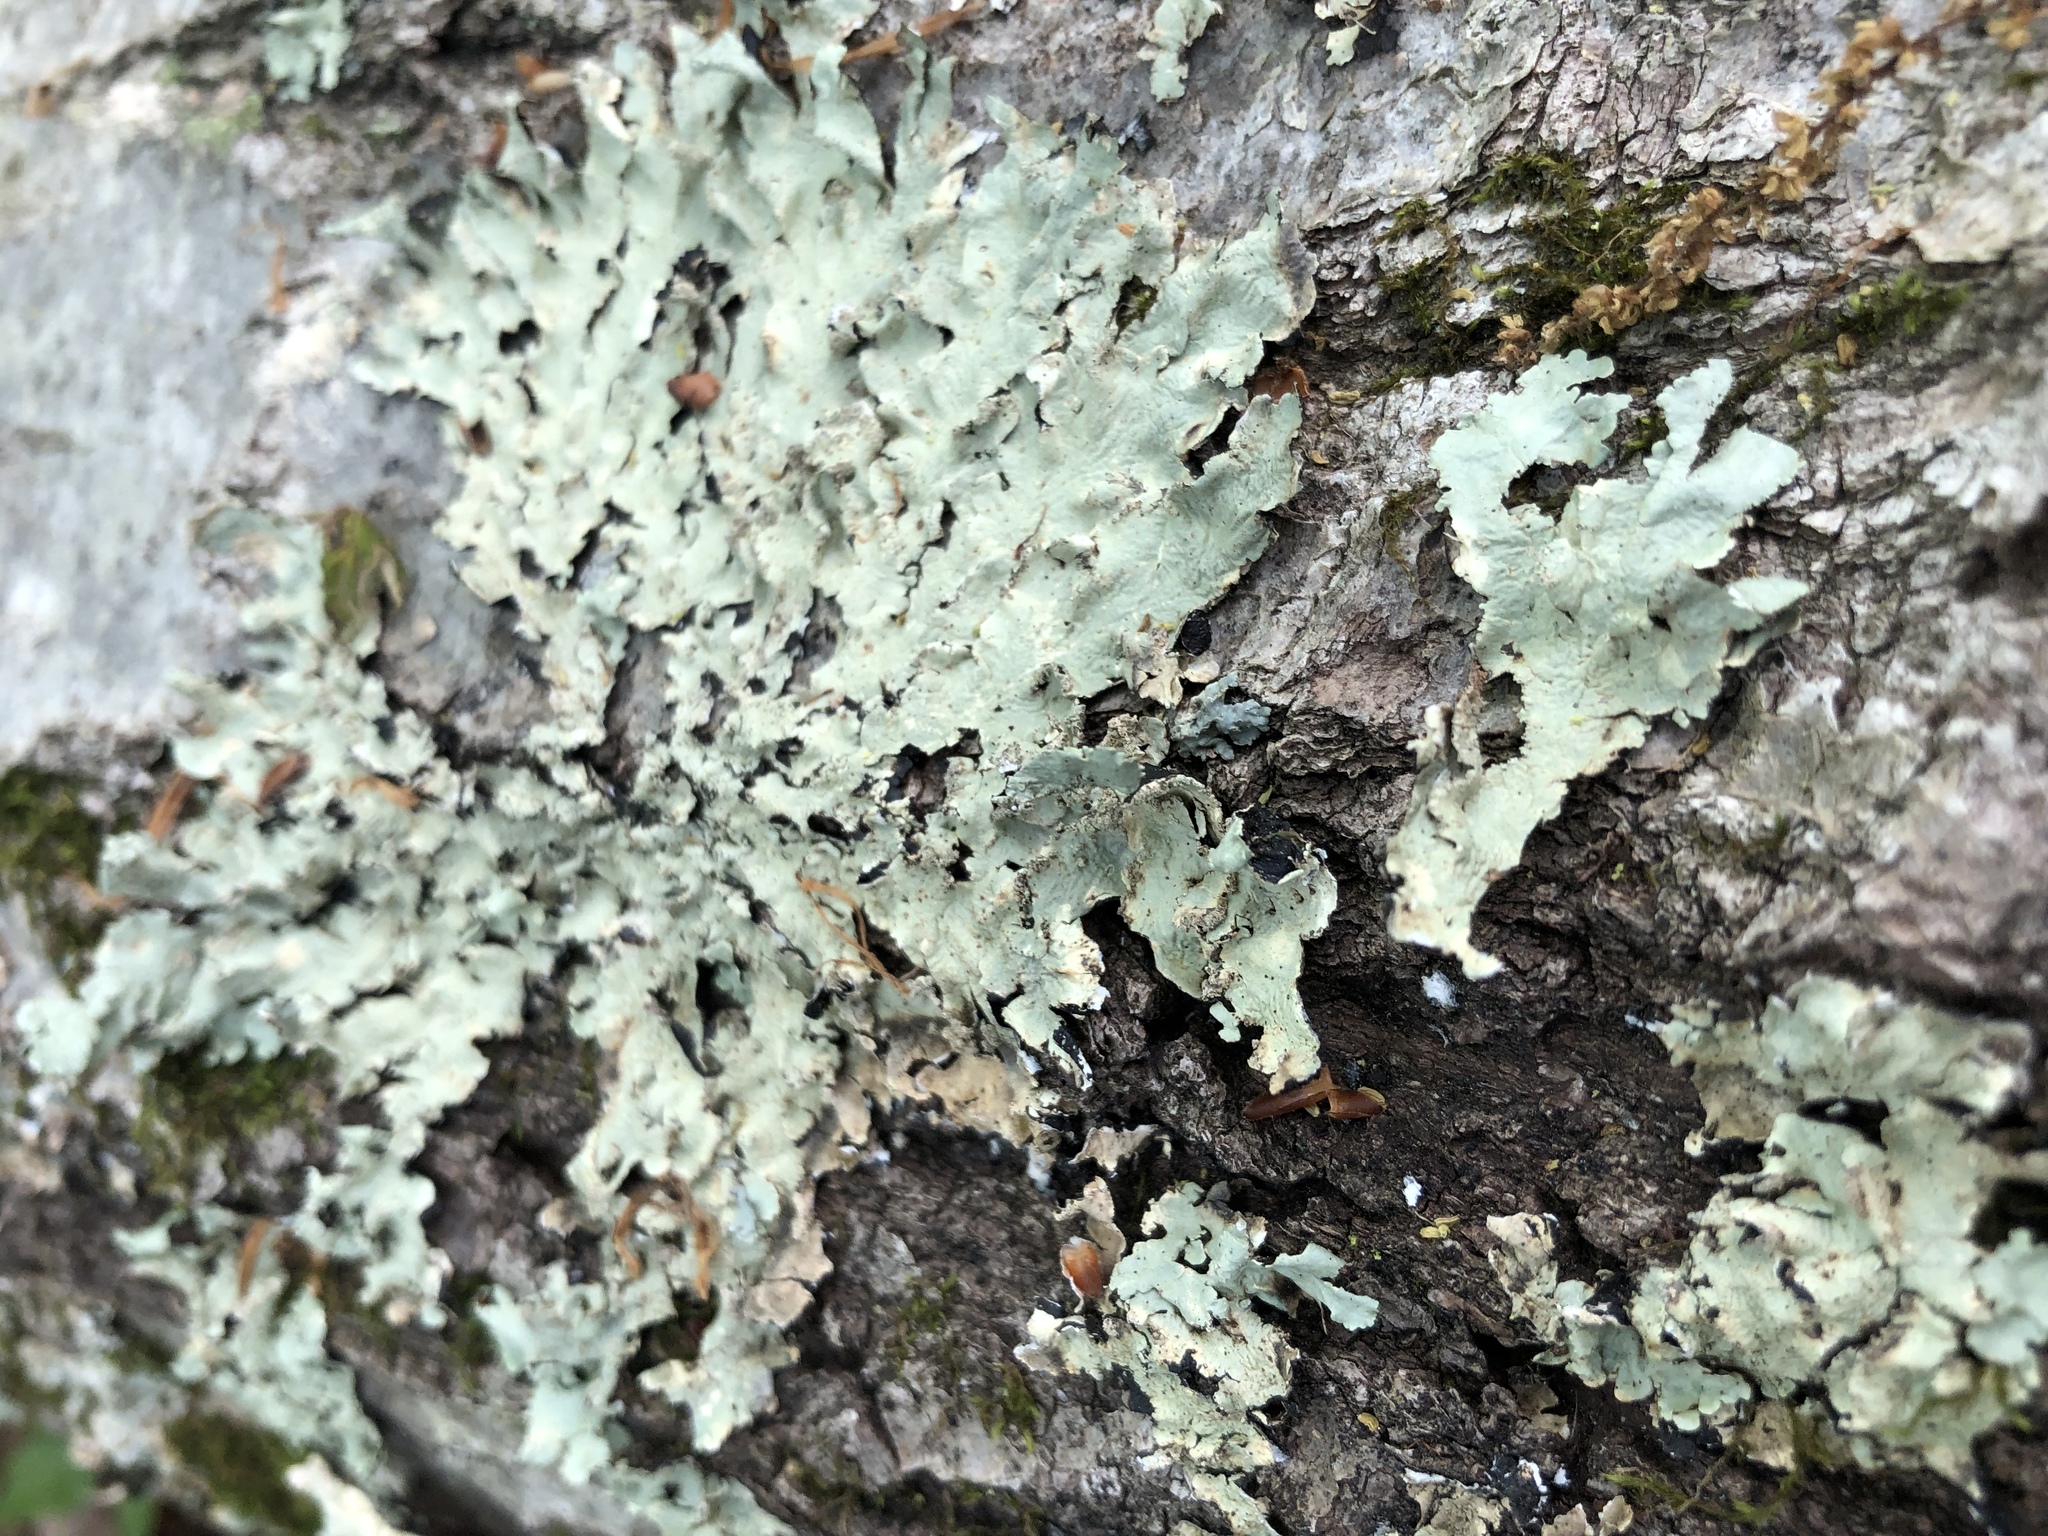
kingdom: Fungi
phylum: Ascomycota
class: Lecanoromycetes
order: Lecanorales
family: Parmeliaceae
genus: Flavoparmelia
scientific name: Flavoparmelia caperata
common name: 40-mile per hour lichen
